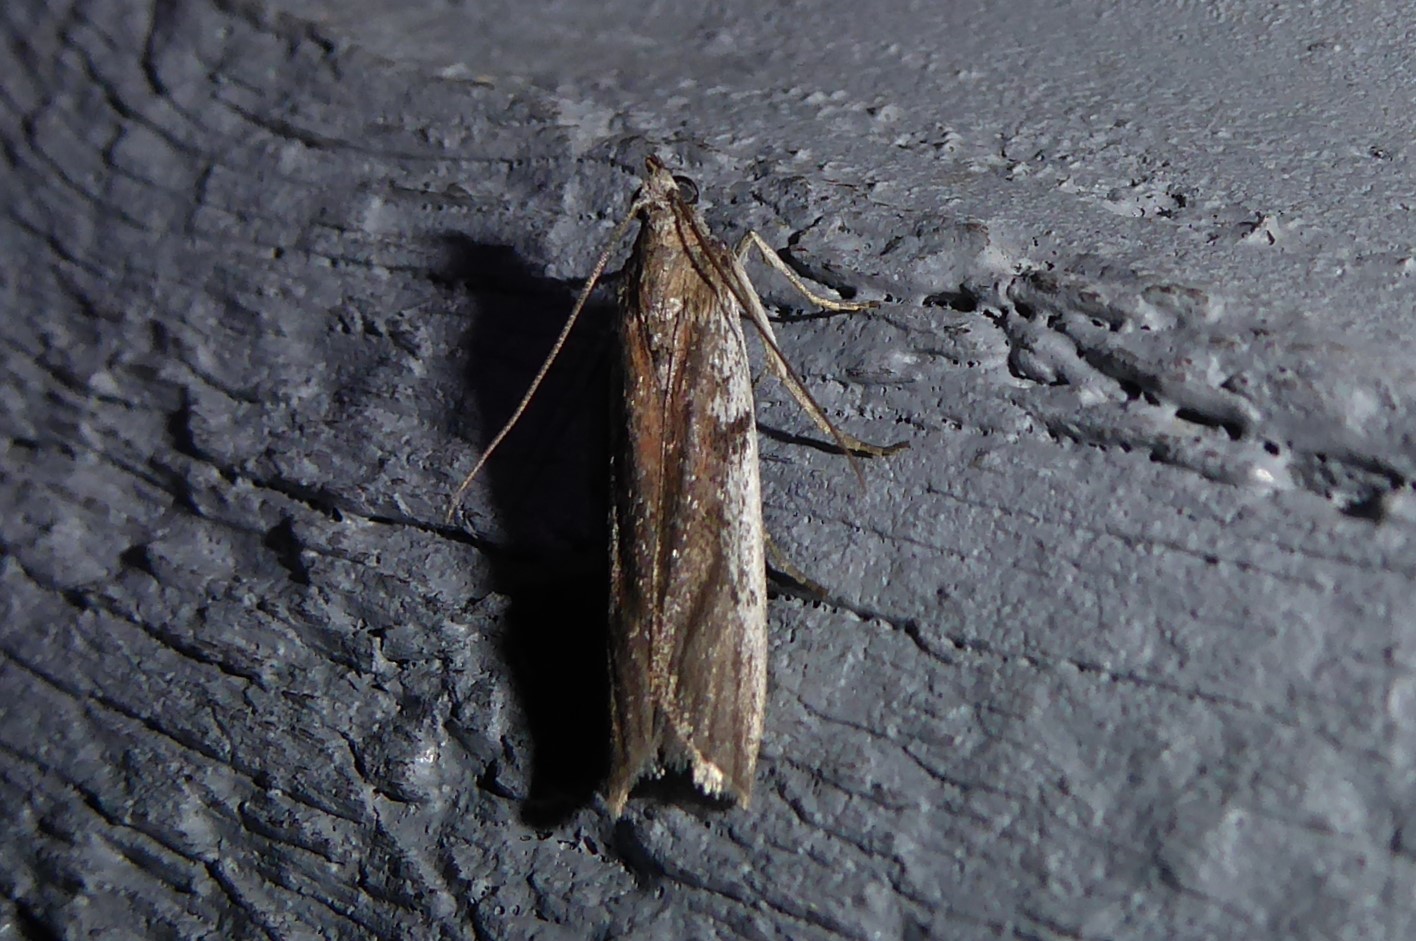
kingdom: Animalia
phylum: Arthropoda
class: Insecta
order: Lepidoptera
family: Pyralidae
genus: Patagoniodes
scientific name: Patagoniodes farinaria
